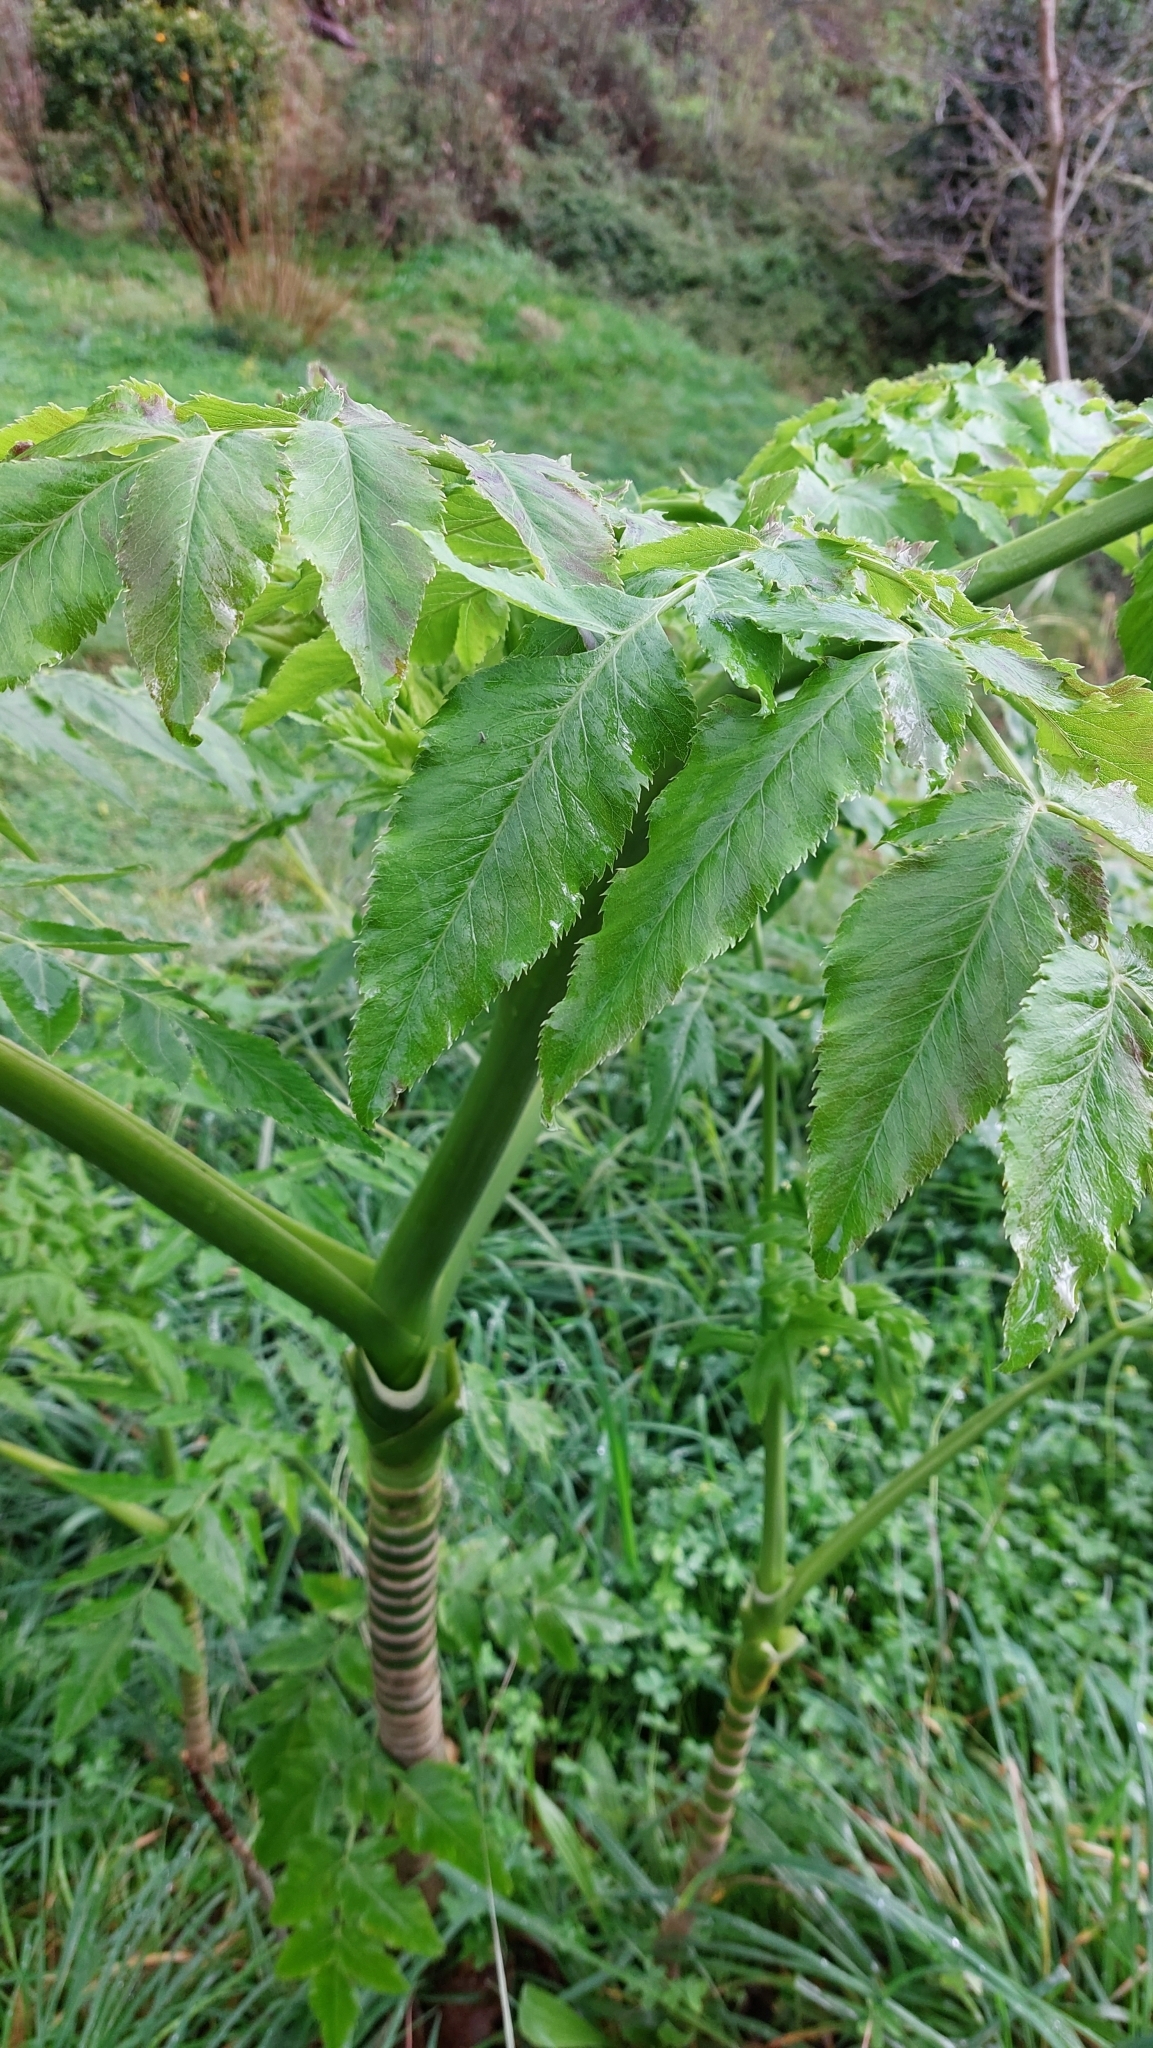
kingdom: Plantae
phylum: Tracheophyta
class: Magnoliopsida
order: Apiales
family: Apiaceae
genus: Daucus
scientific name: Daucus decipiens
